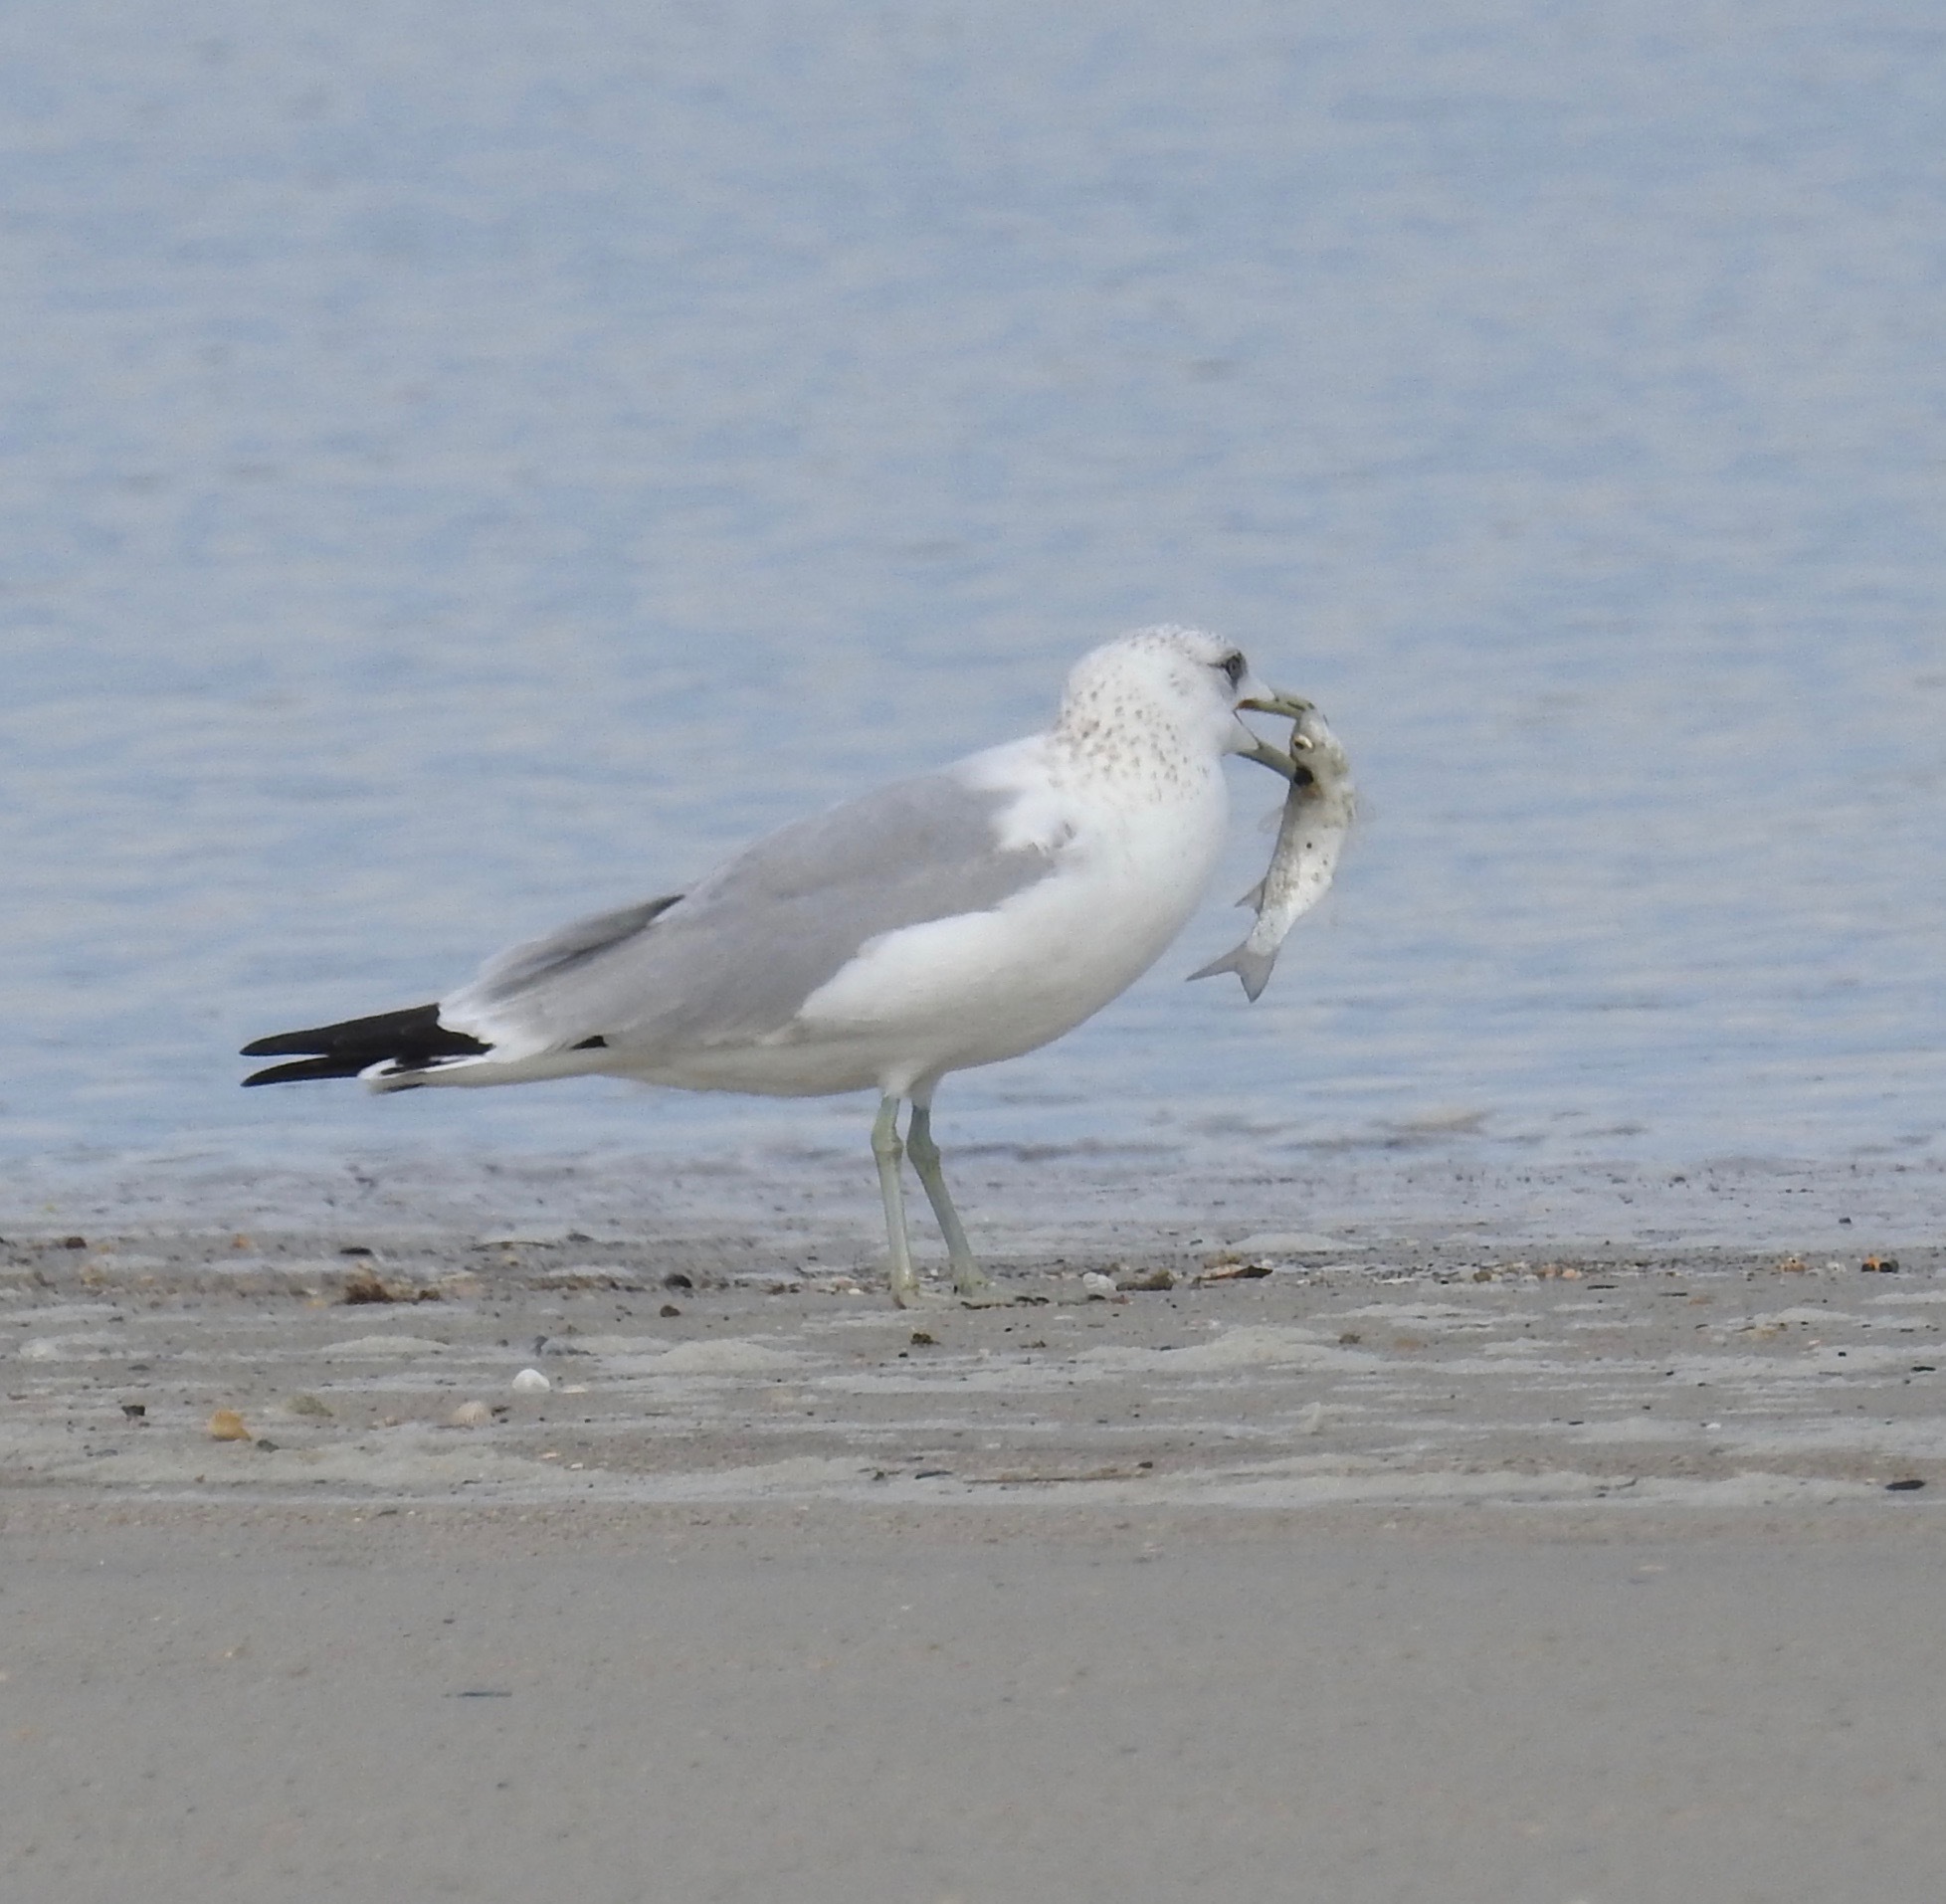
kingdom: Animalia
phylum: Chordata
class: Aves
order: Charadriiformes
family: Laridae
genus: Larus
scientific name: Larus delawarensis
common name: Ring-billed gull
